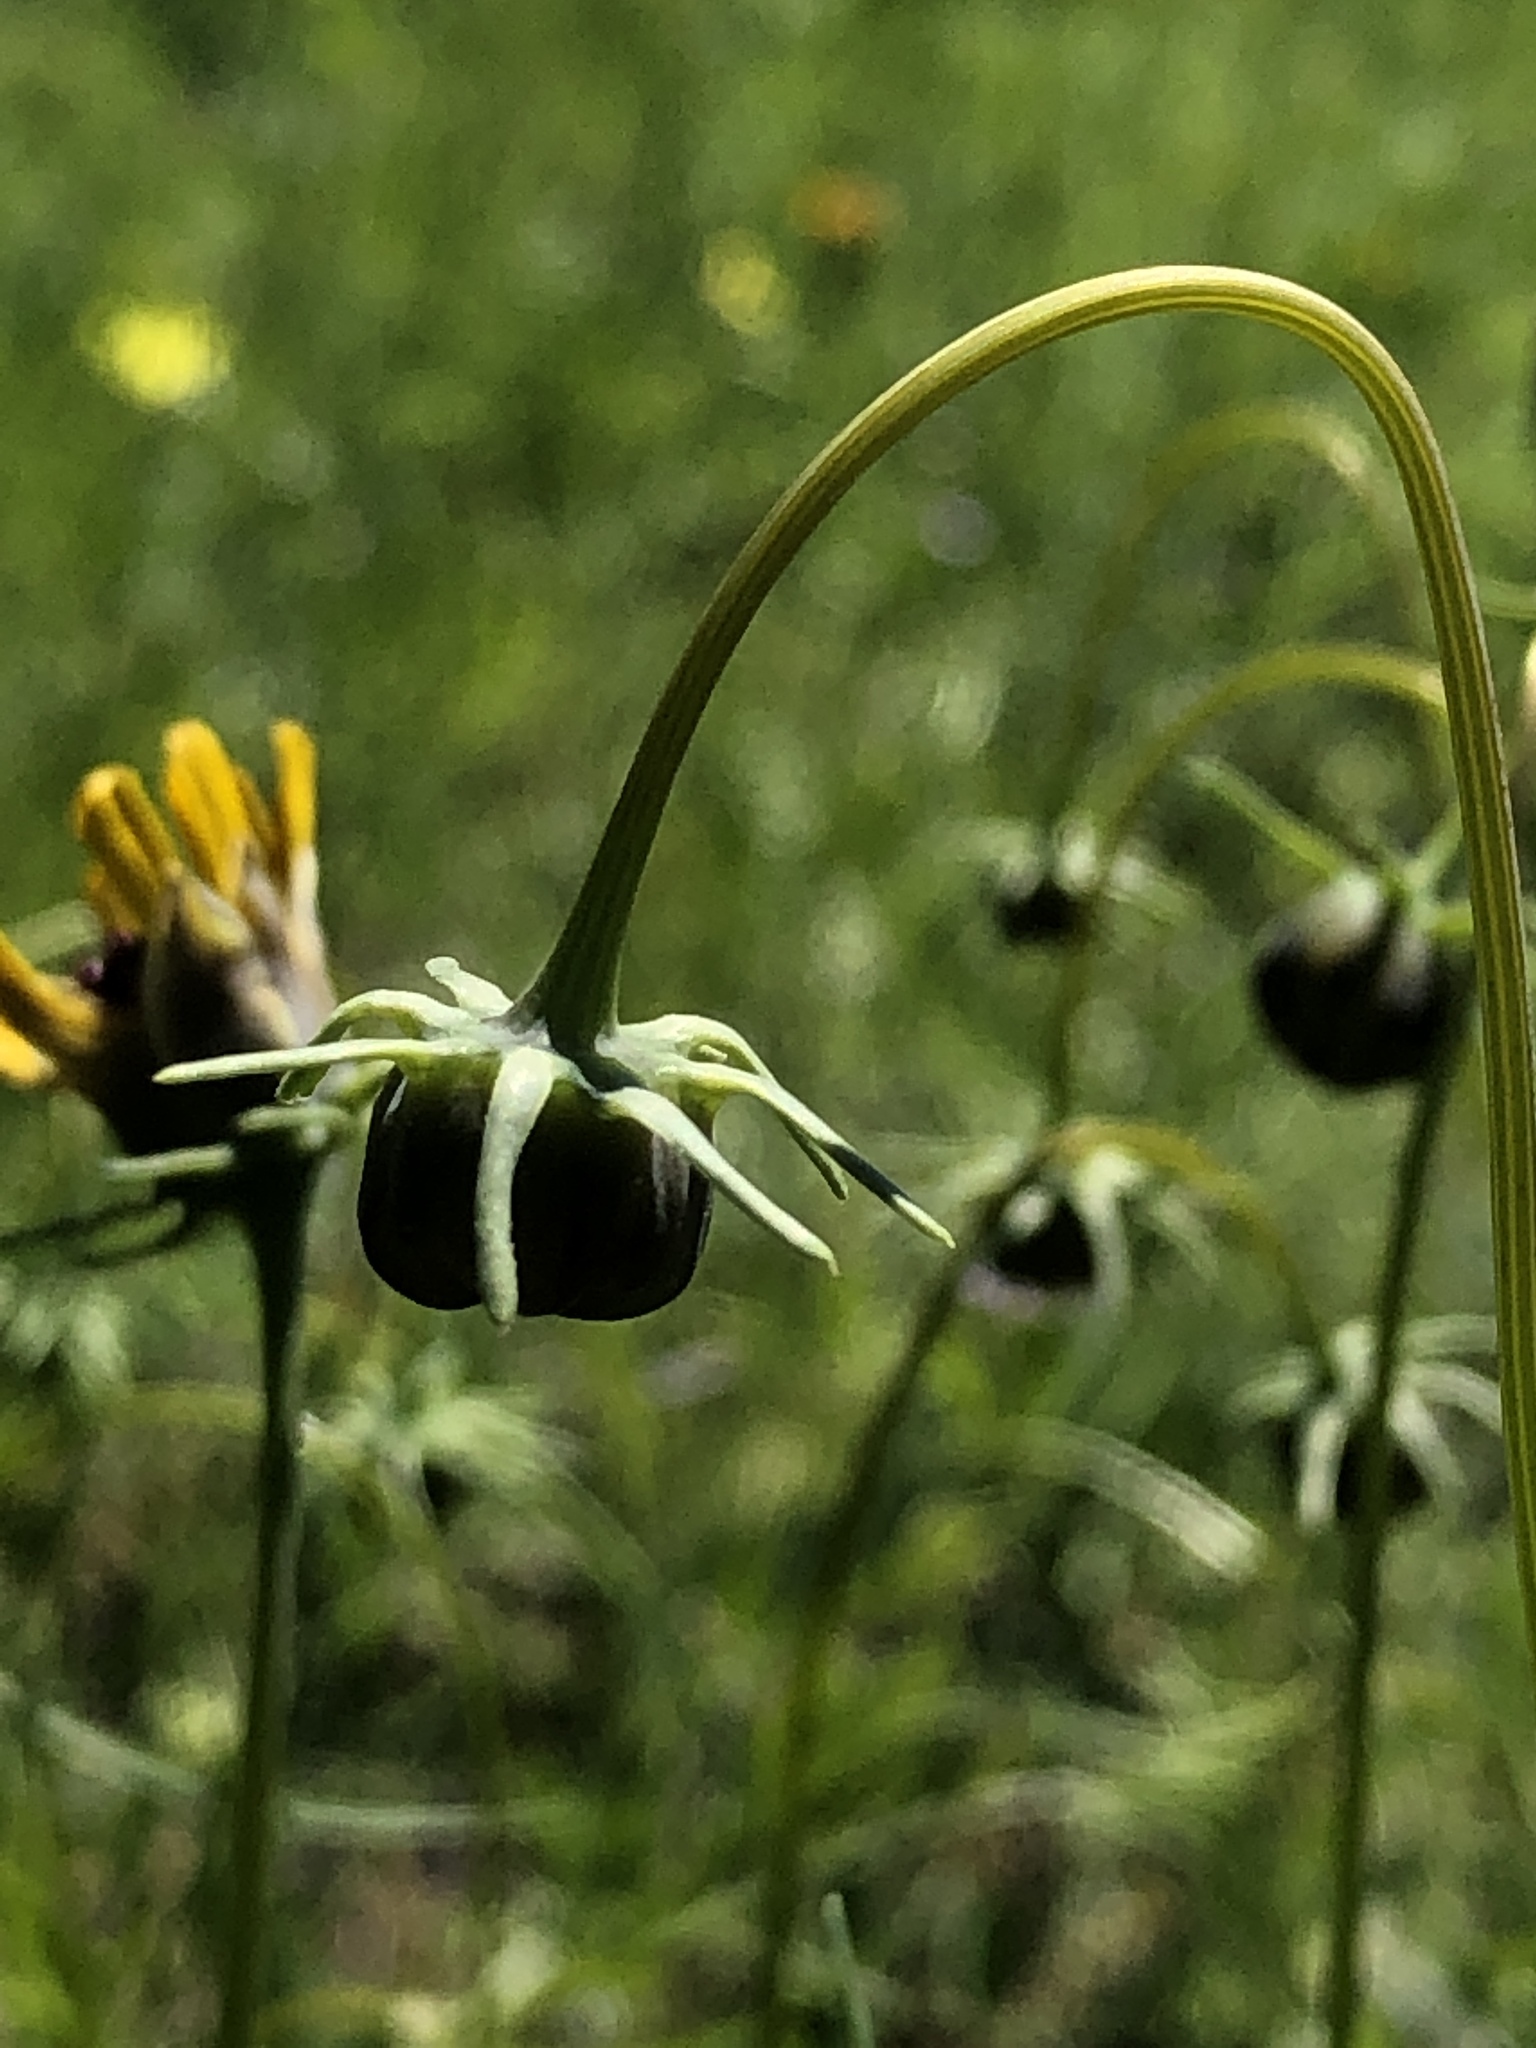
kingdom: Plantae
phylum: Tracheophyta
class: Magnoliopsida
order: Asterales
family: Asteraceae
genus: Thelesperma
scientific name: Thelesperma filifolium
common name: Stiff greenthread
